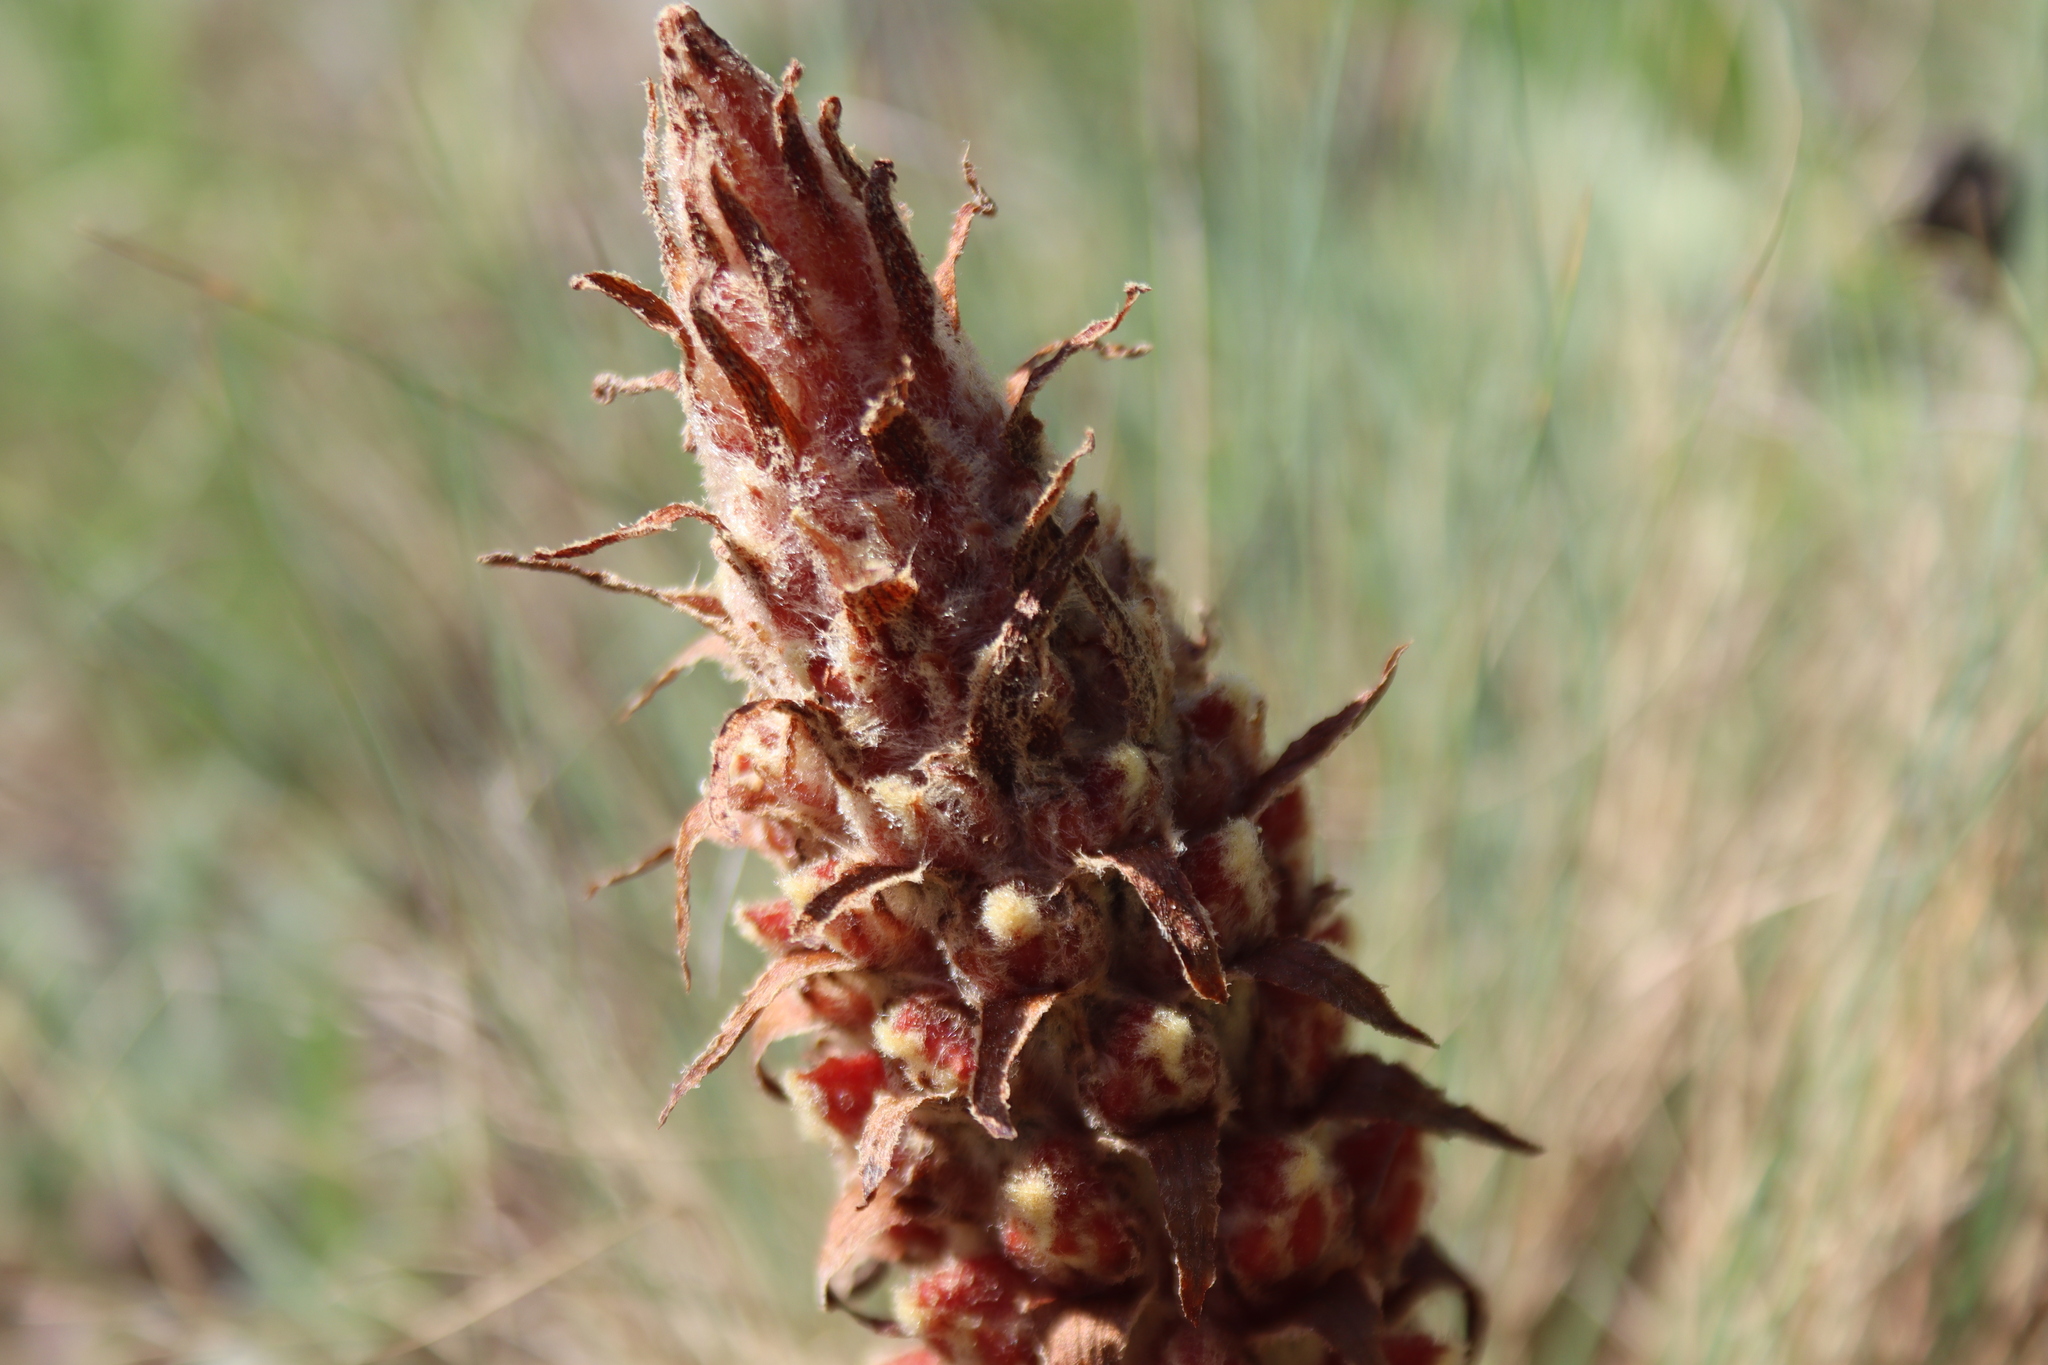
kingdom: Plantae
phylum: Tracheophyta
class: Magnoliopsida
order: Lamiales
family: Orobanchaceae
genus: Orobanche
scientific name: Orobanche anatolica
